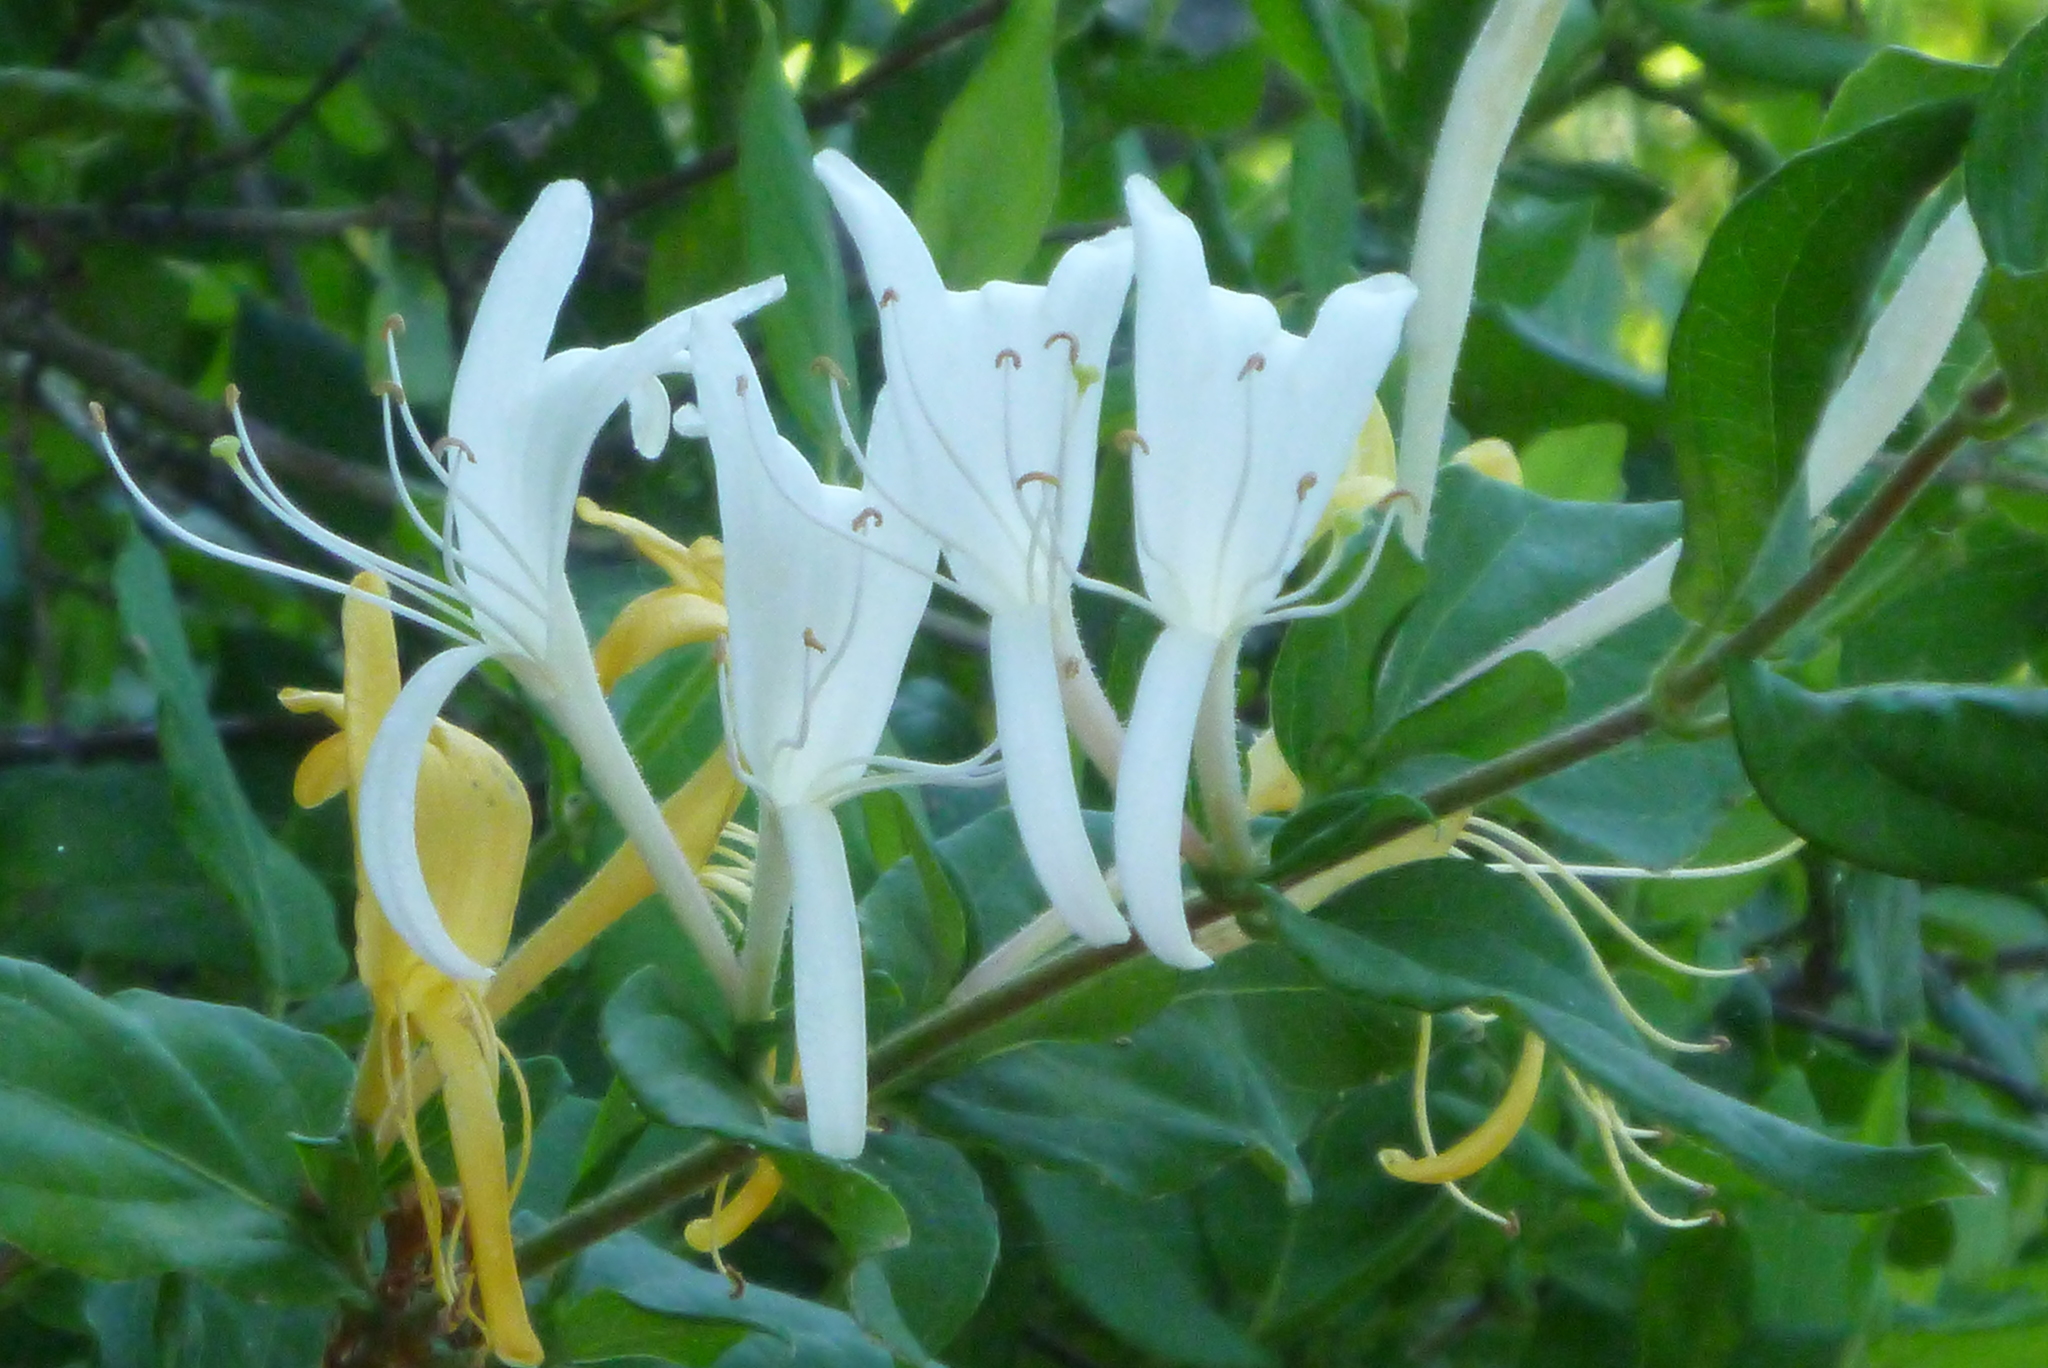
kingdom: Plantae
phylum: Tracheophyta
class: Magnoliopsida
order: Dipsacales
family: Caprifoliaceae
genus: Lonicera
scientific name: Lonicera japonica
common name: Japanese honeysuckle
